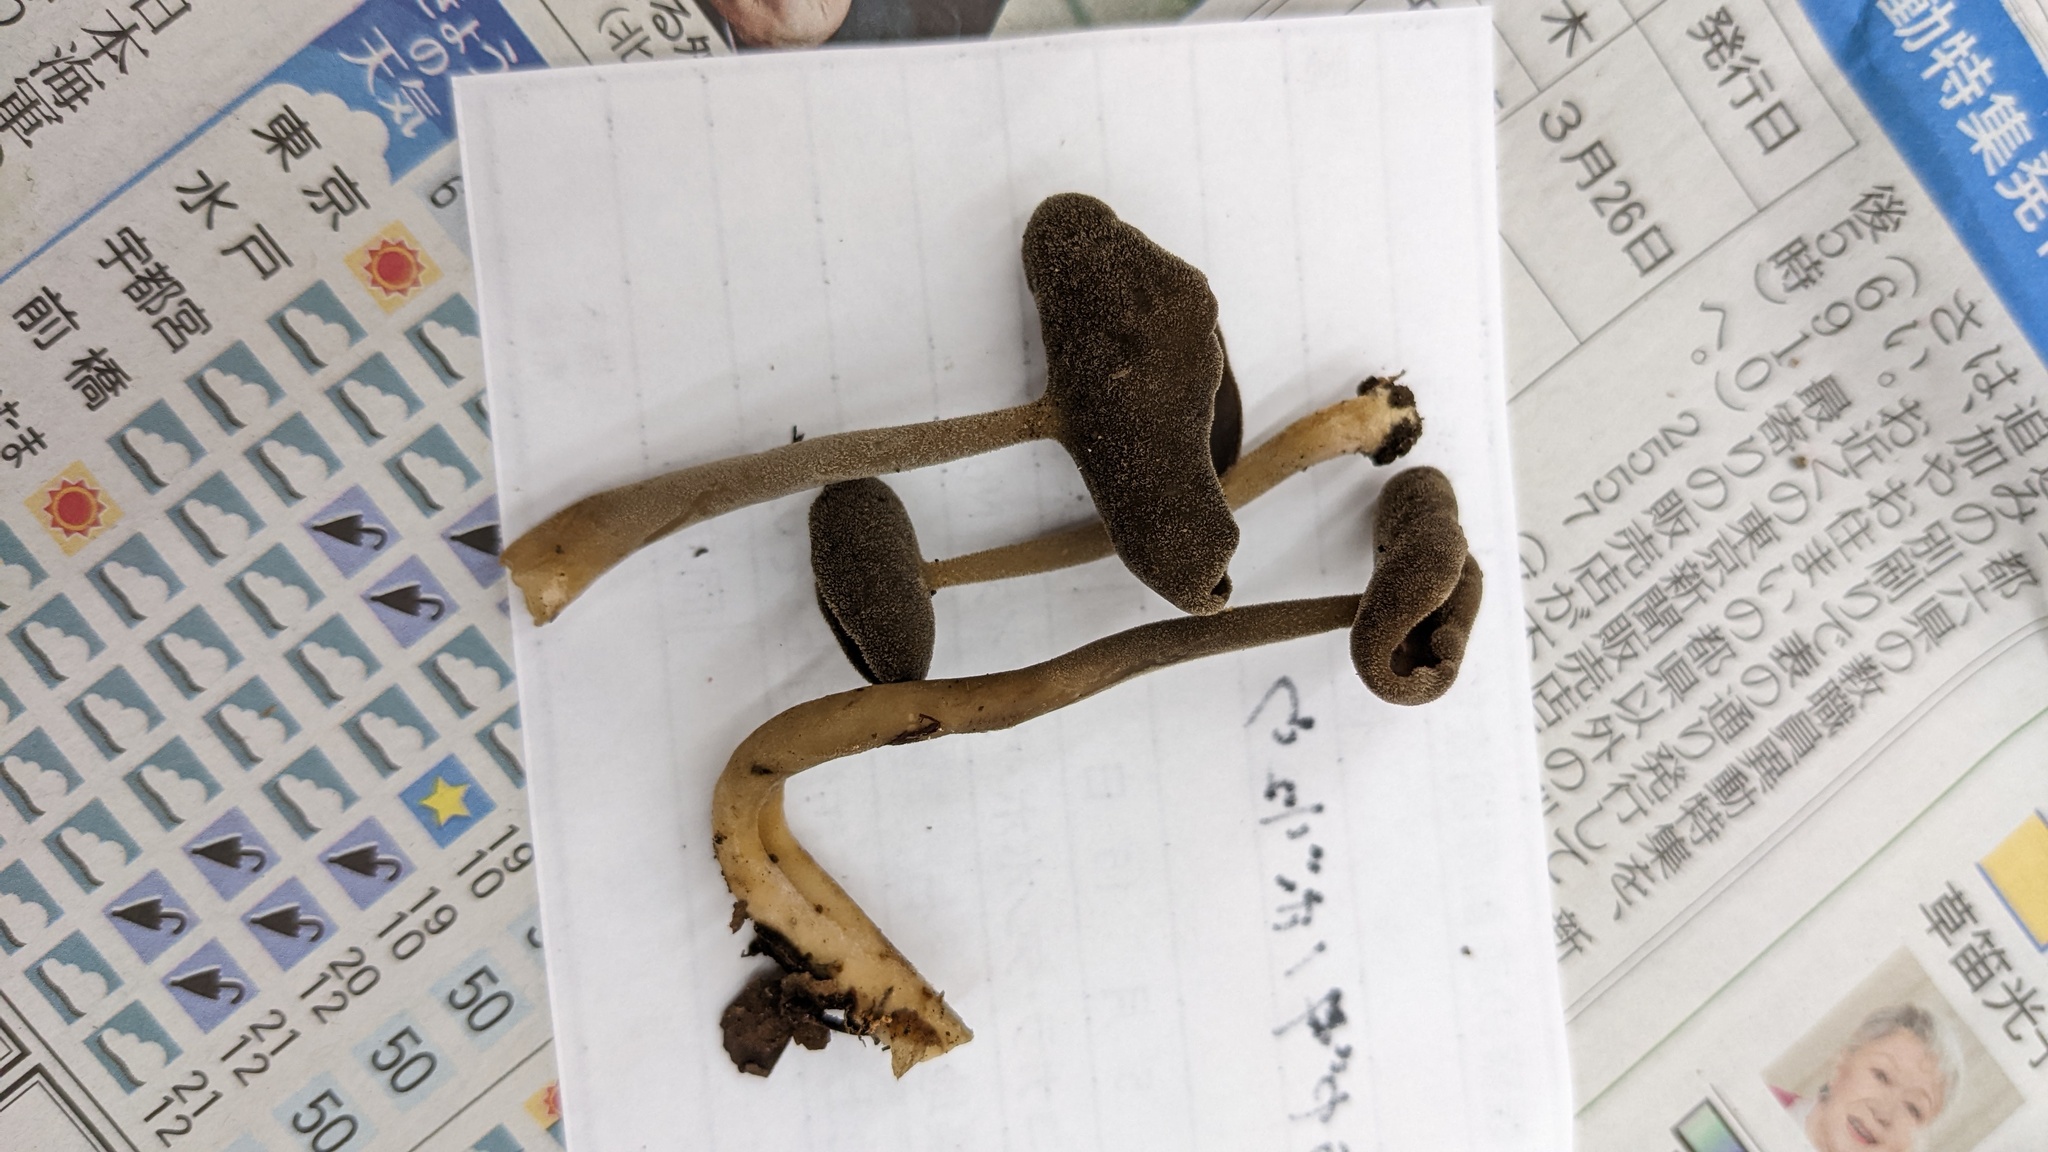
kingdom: Fungi
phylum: Ascomycota
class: Pezizomycetes
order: Pezizales
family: Helvellaceae
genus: Helvella
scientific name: Helvella ephippium
